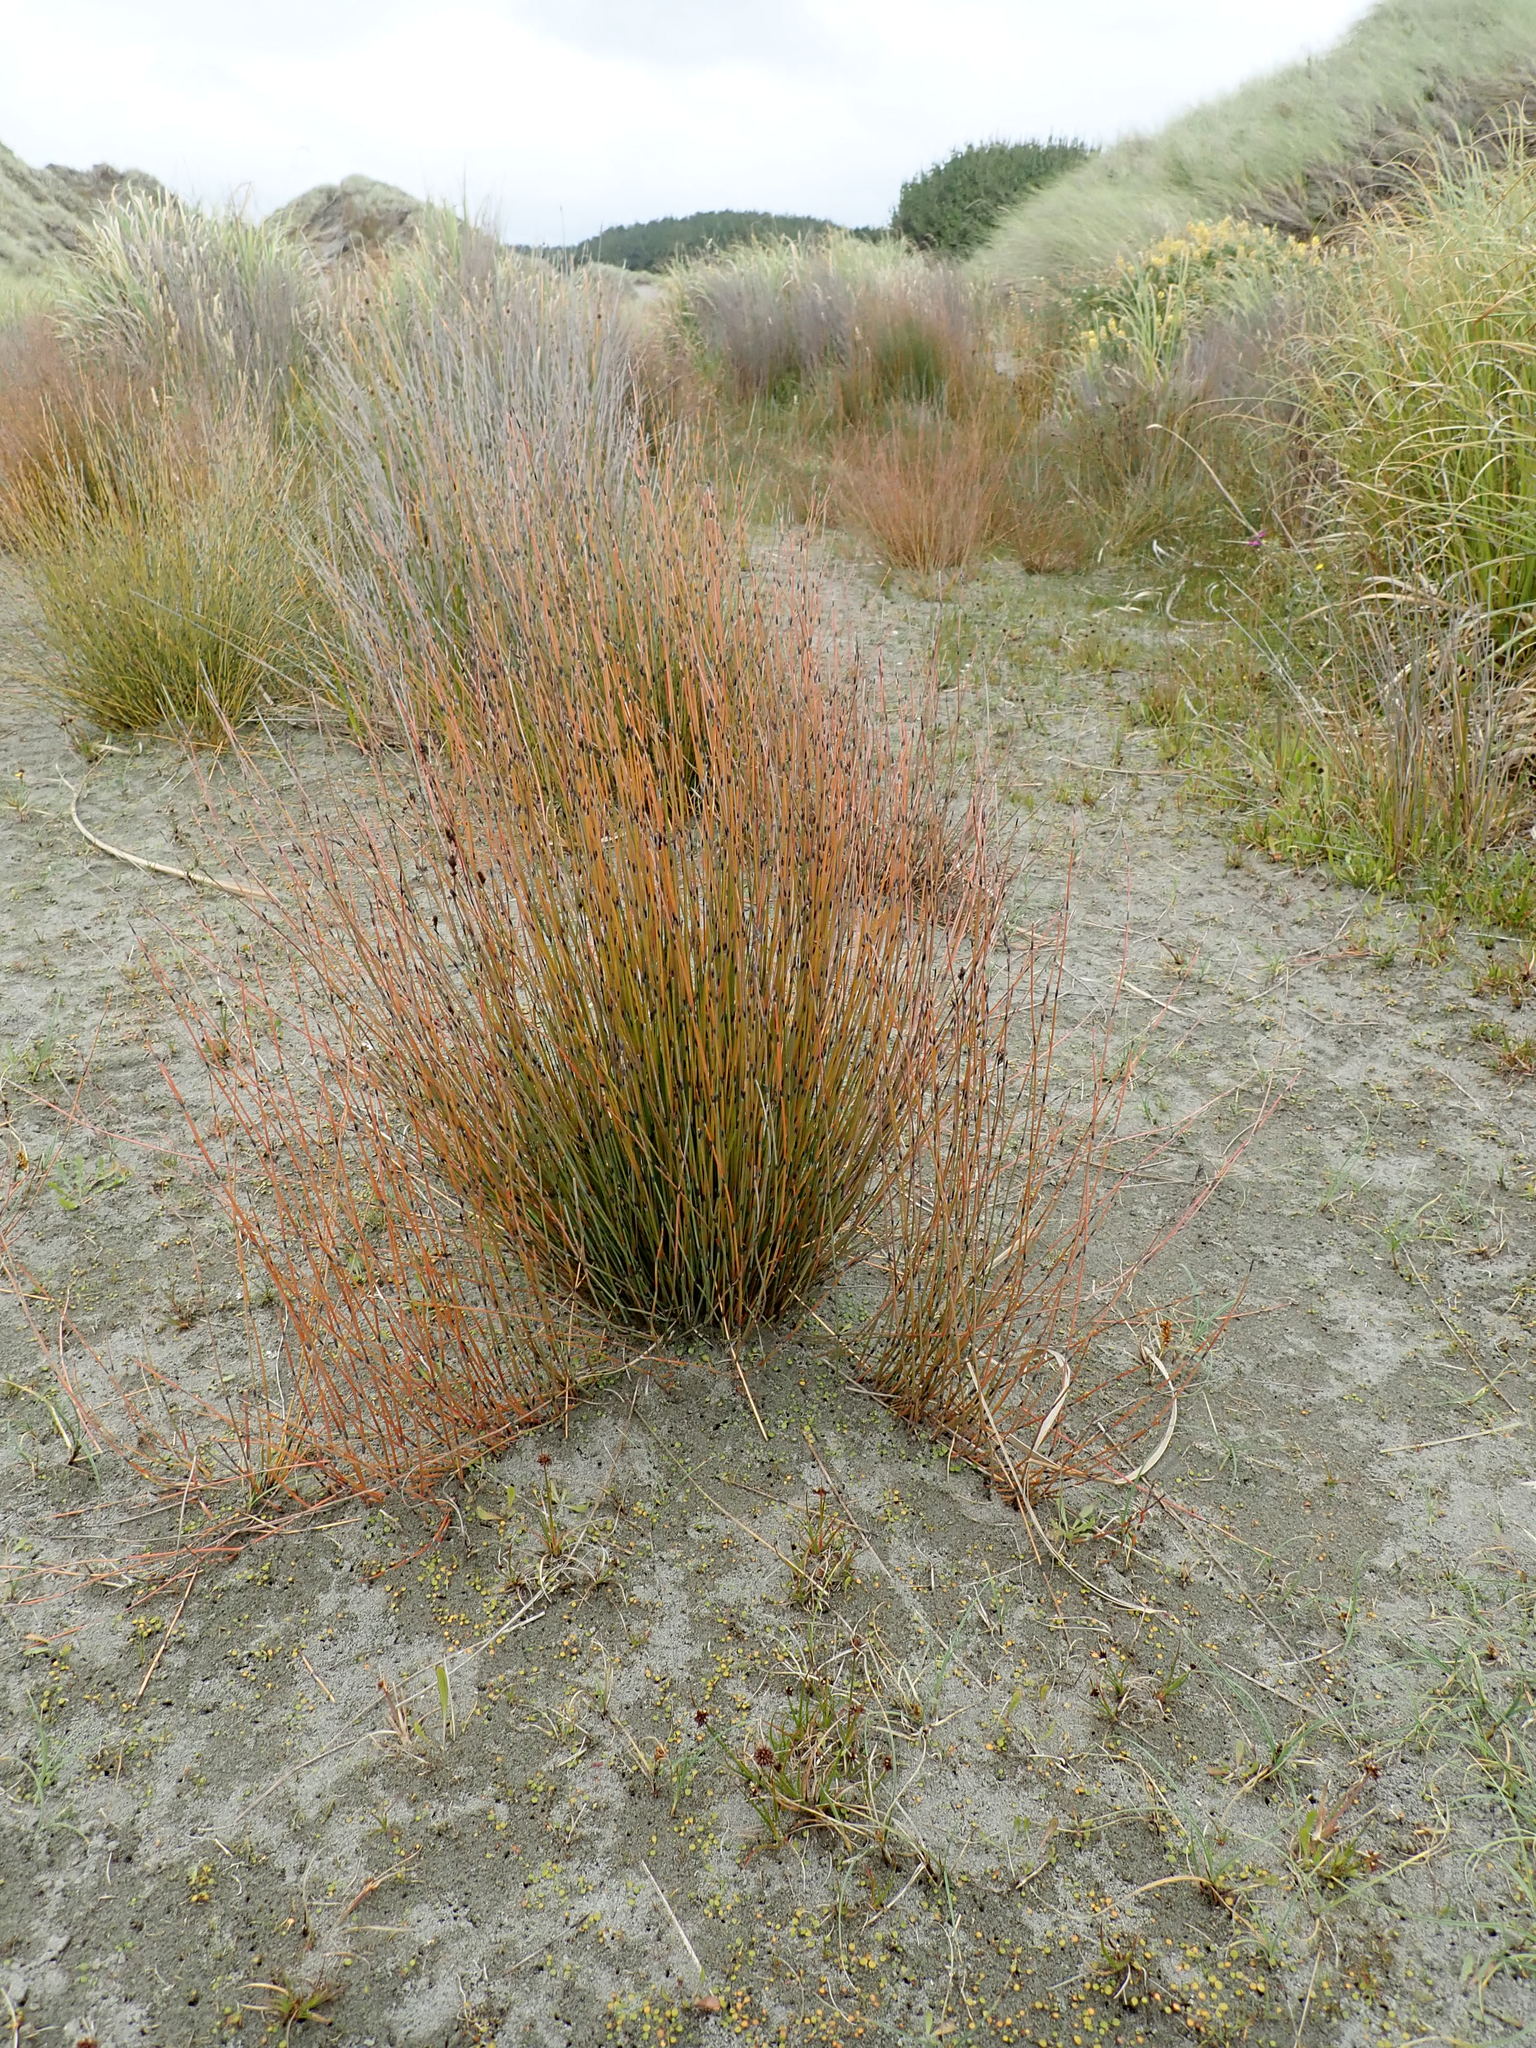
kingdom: Plantae
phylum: Tracheophyta
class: Liliopsida
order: Poales
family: Restionaceae
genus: Apodasmia
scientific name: Apodasmia similis
